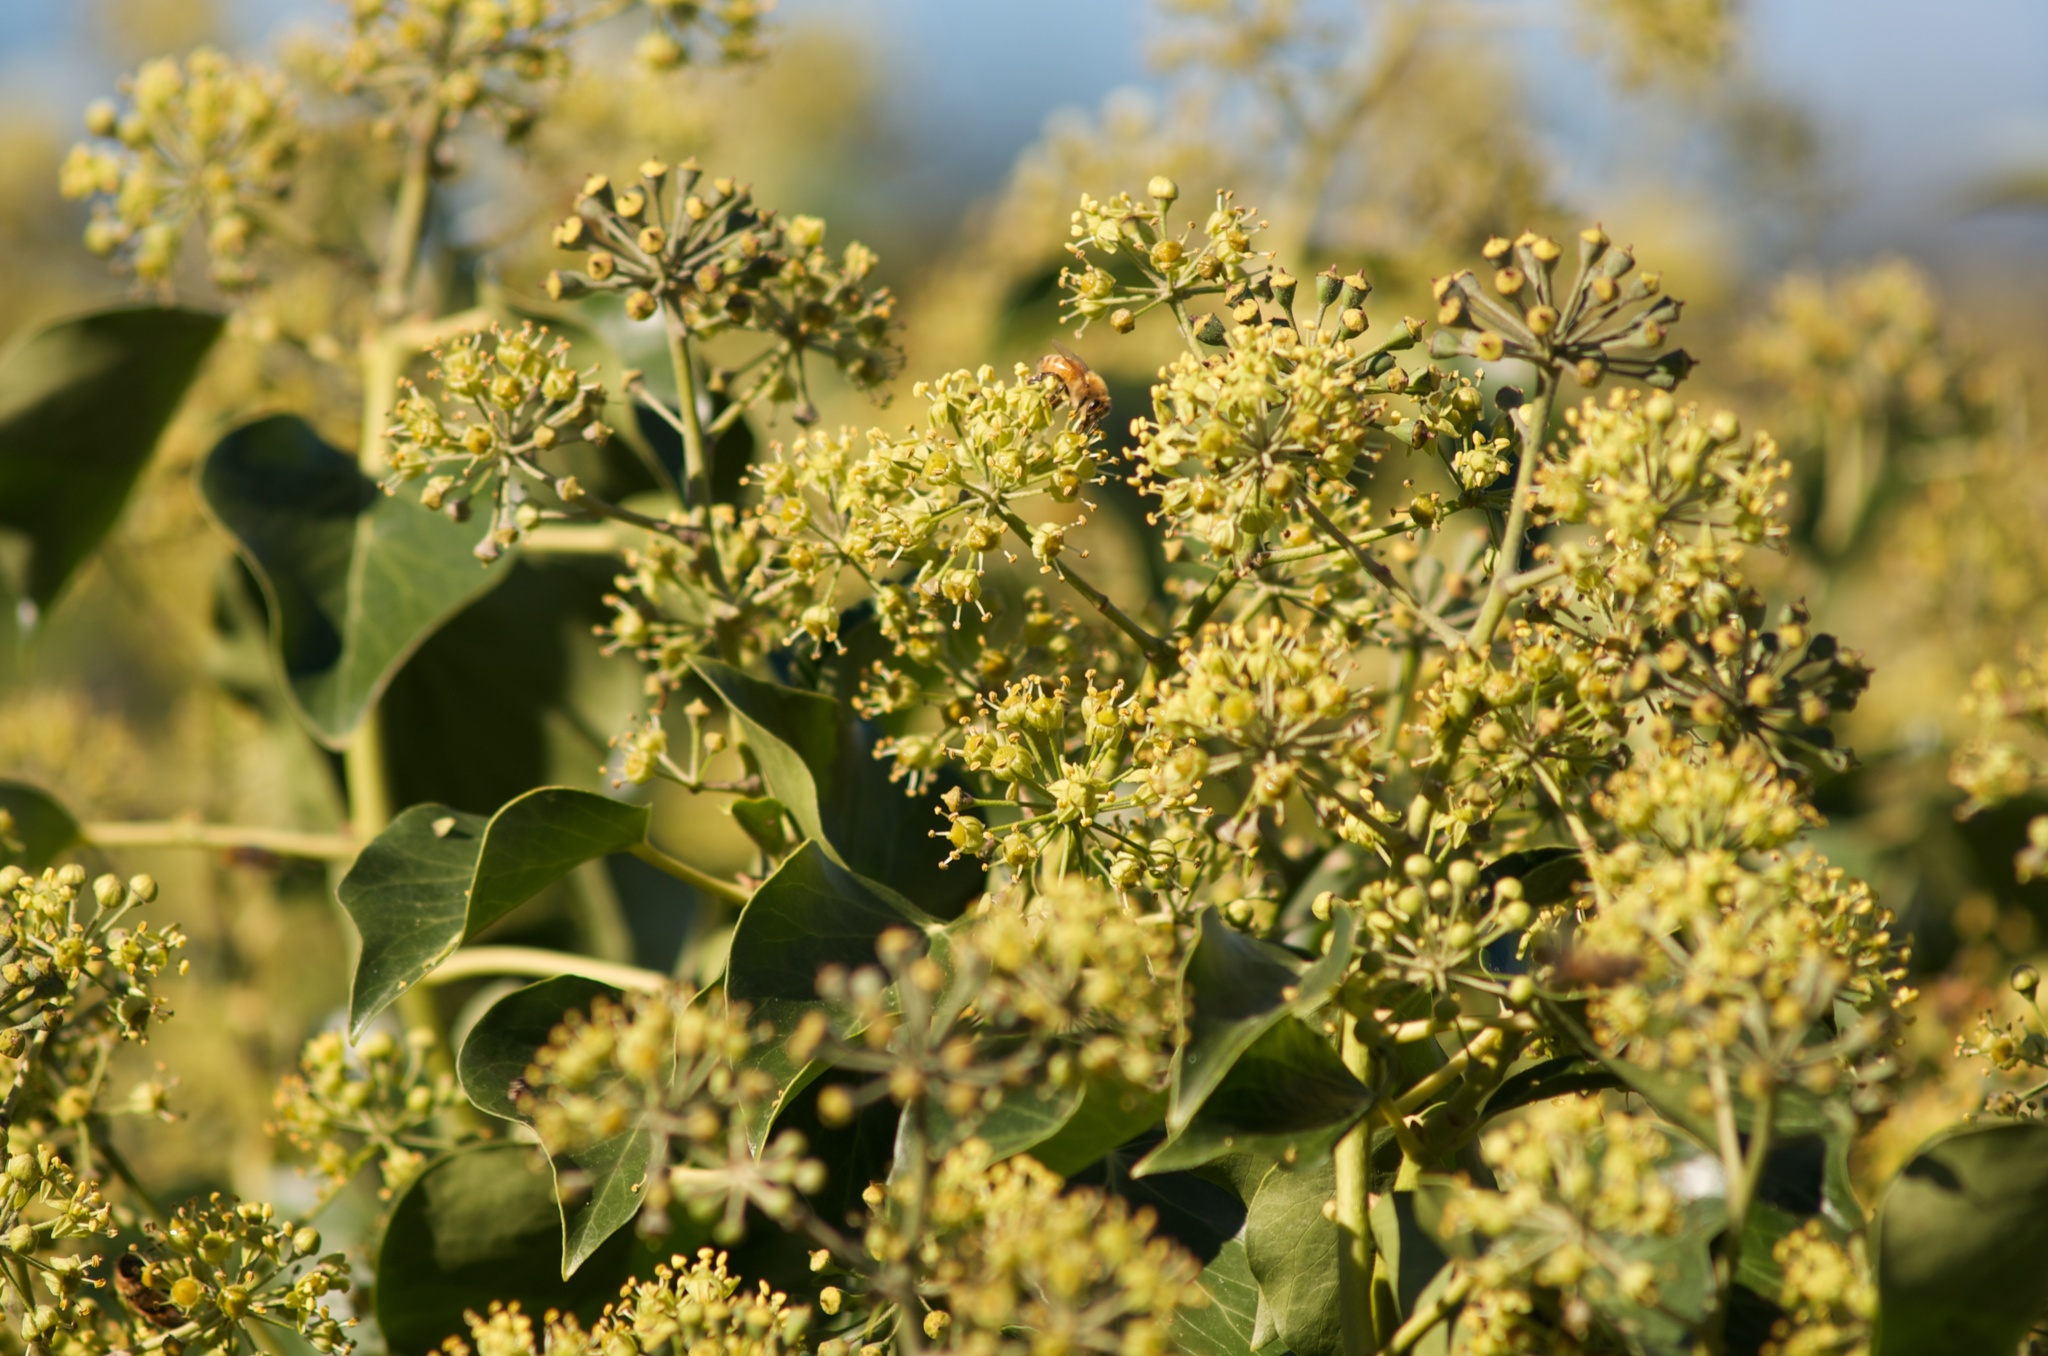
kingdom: Plantae
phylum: Tracheophyta
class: Magnoliopsida
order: Apiales
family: Araliaceae
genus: Hedera
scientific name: Hedera helix
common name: Ivy
